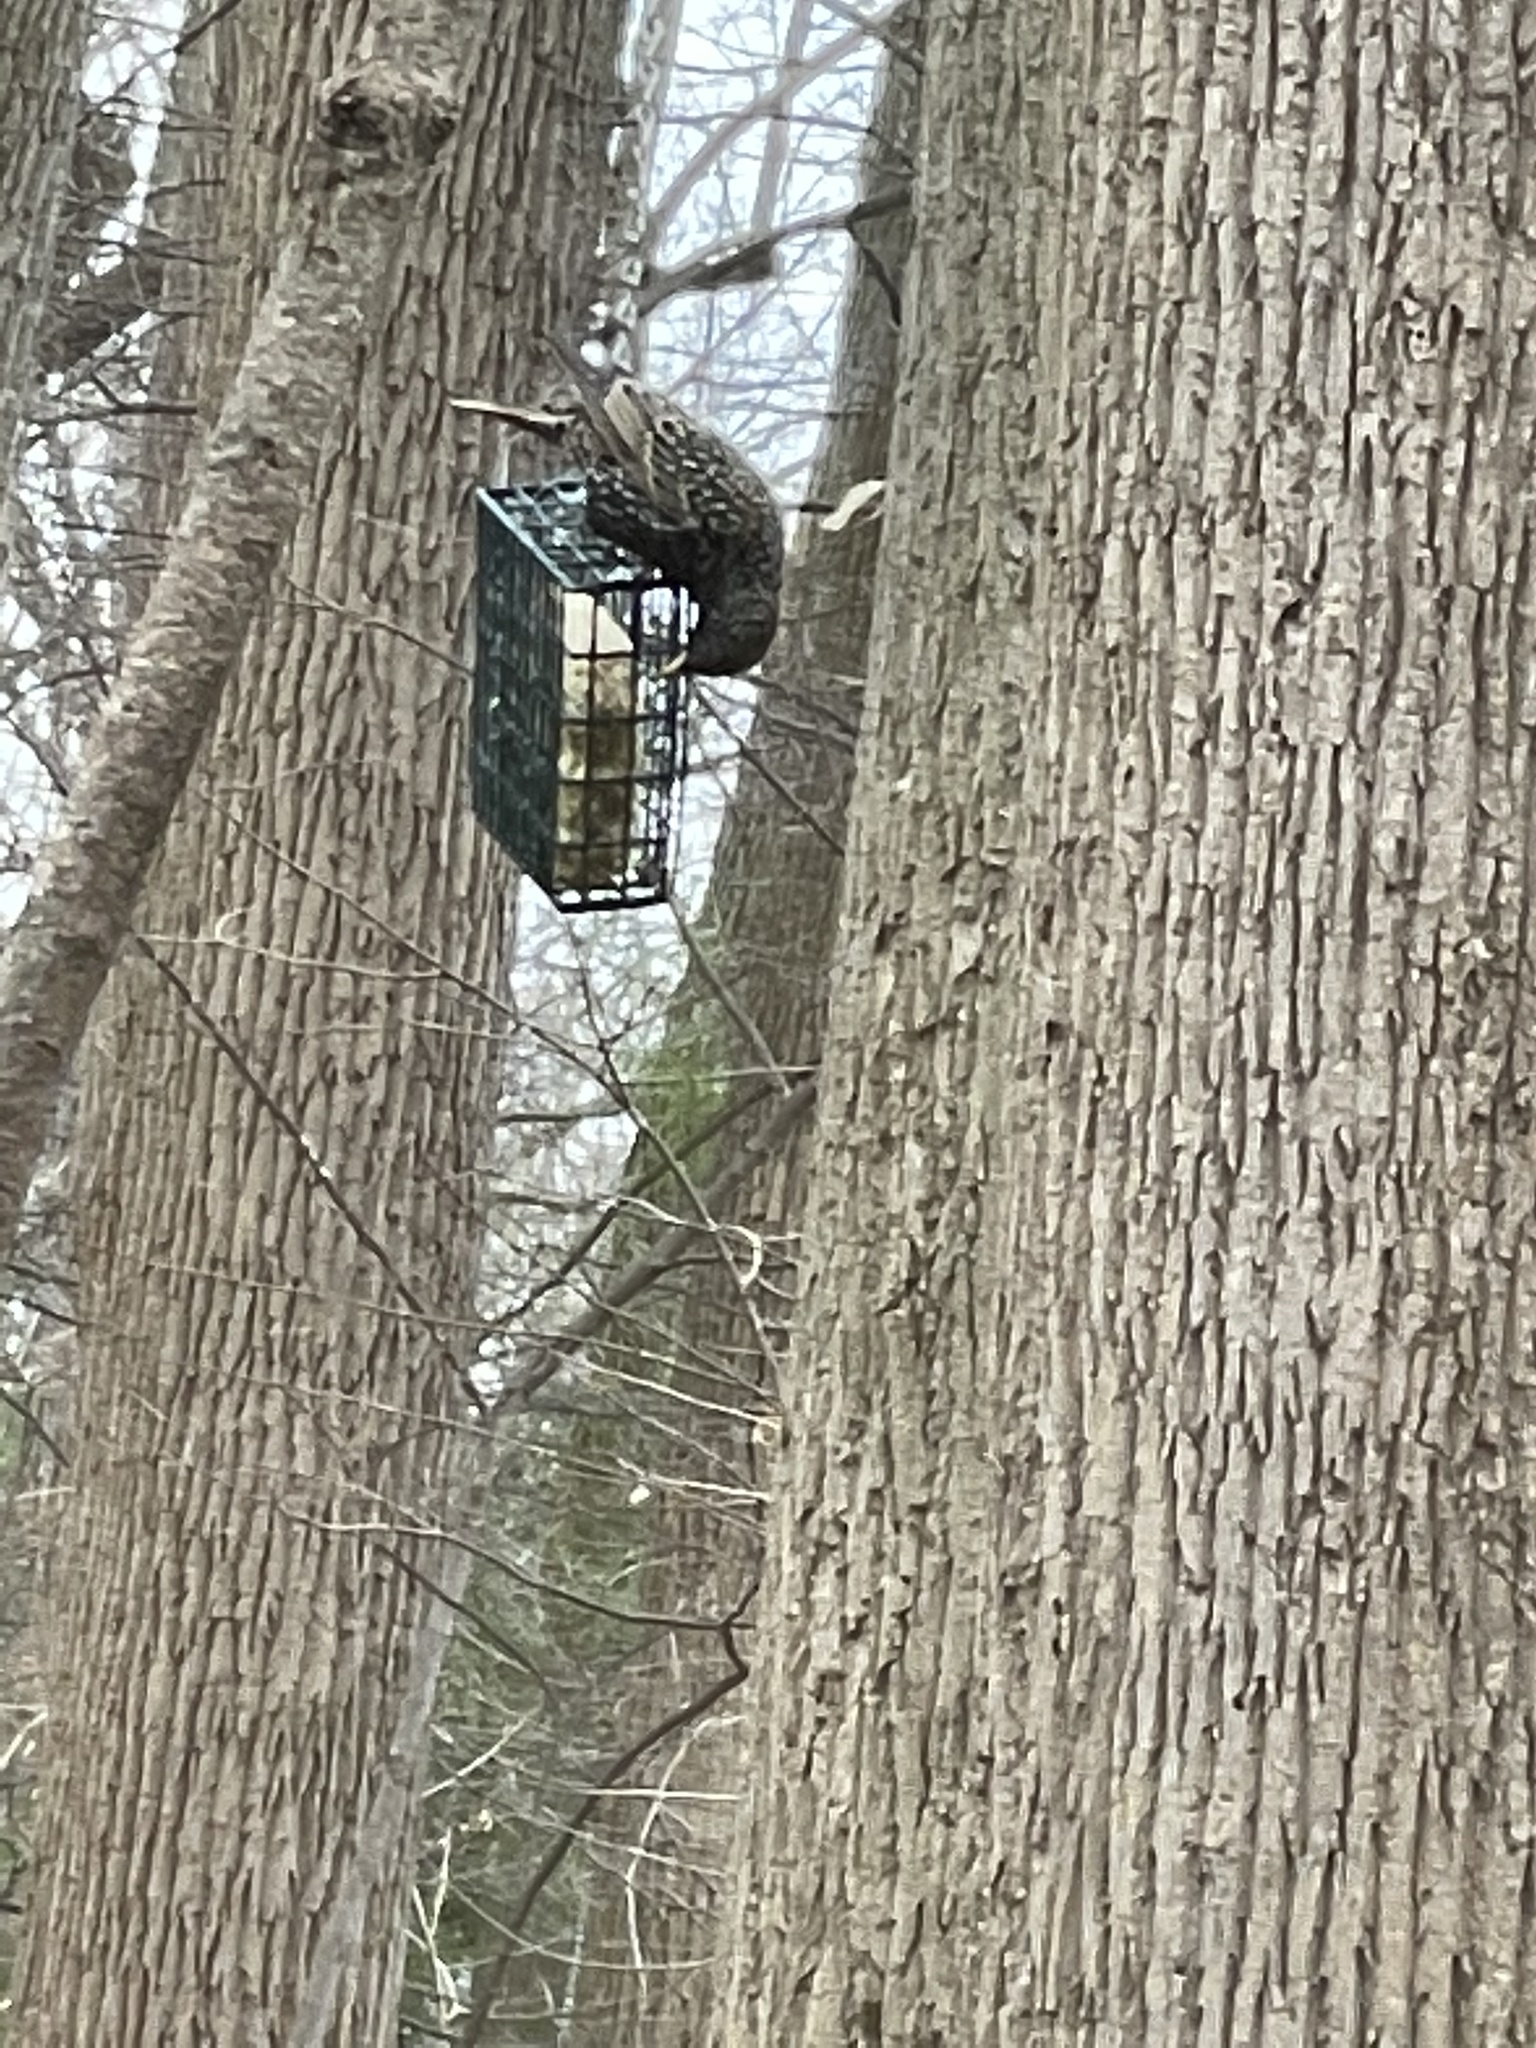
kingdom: Animalia
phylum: Chordata
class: Aves
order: Passeriformes
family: Sturnidae
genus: Sturnus
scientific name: Sturnus vulgaris
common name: Common starling
